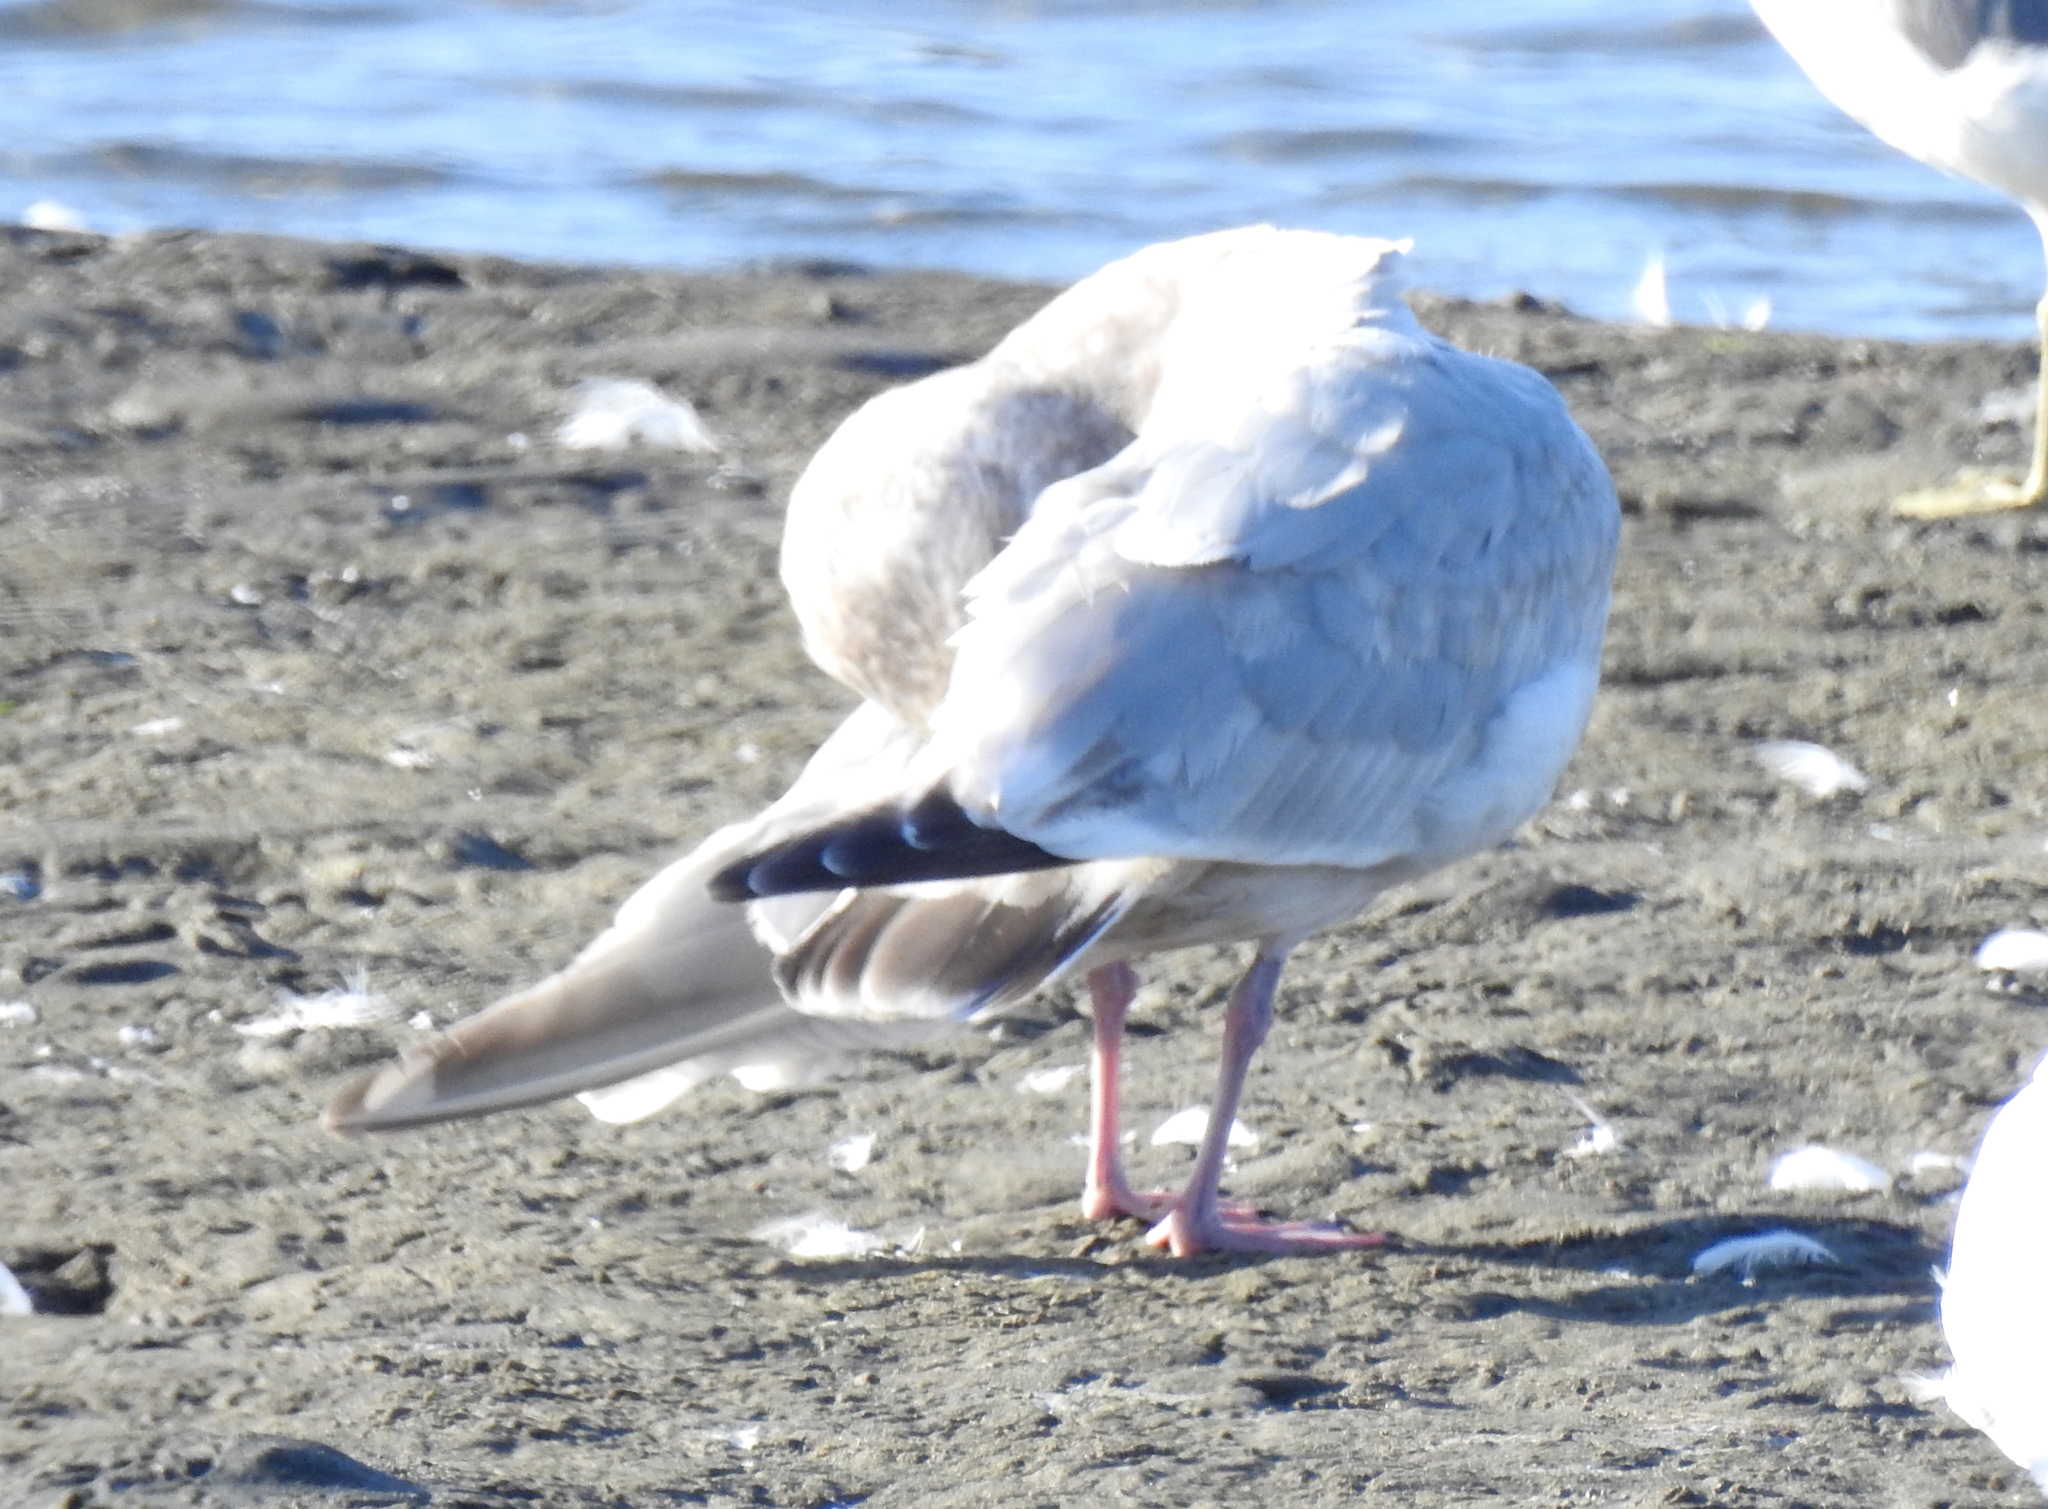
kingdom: Animalia
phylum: Chordata
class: Aves
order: Charadriiformes
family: Laridae
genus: Larus
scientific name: Larus
